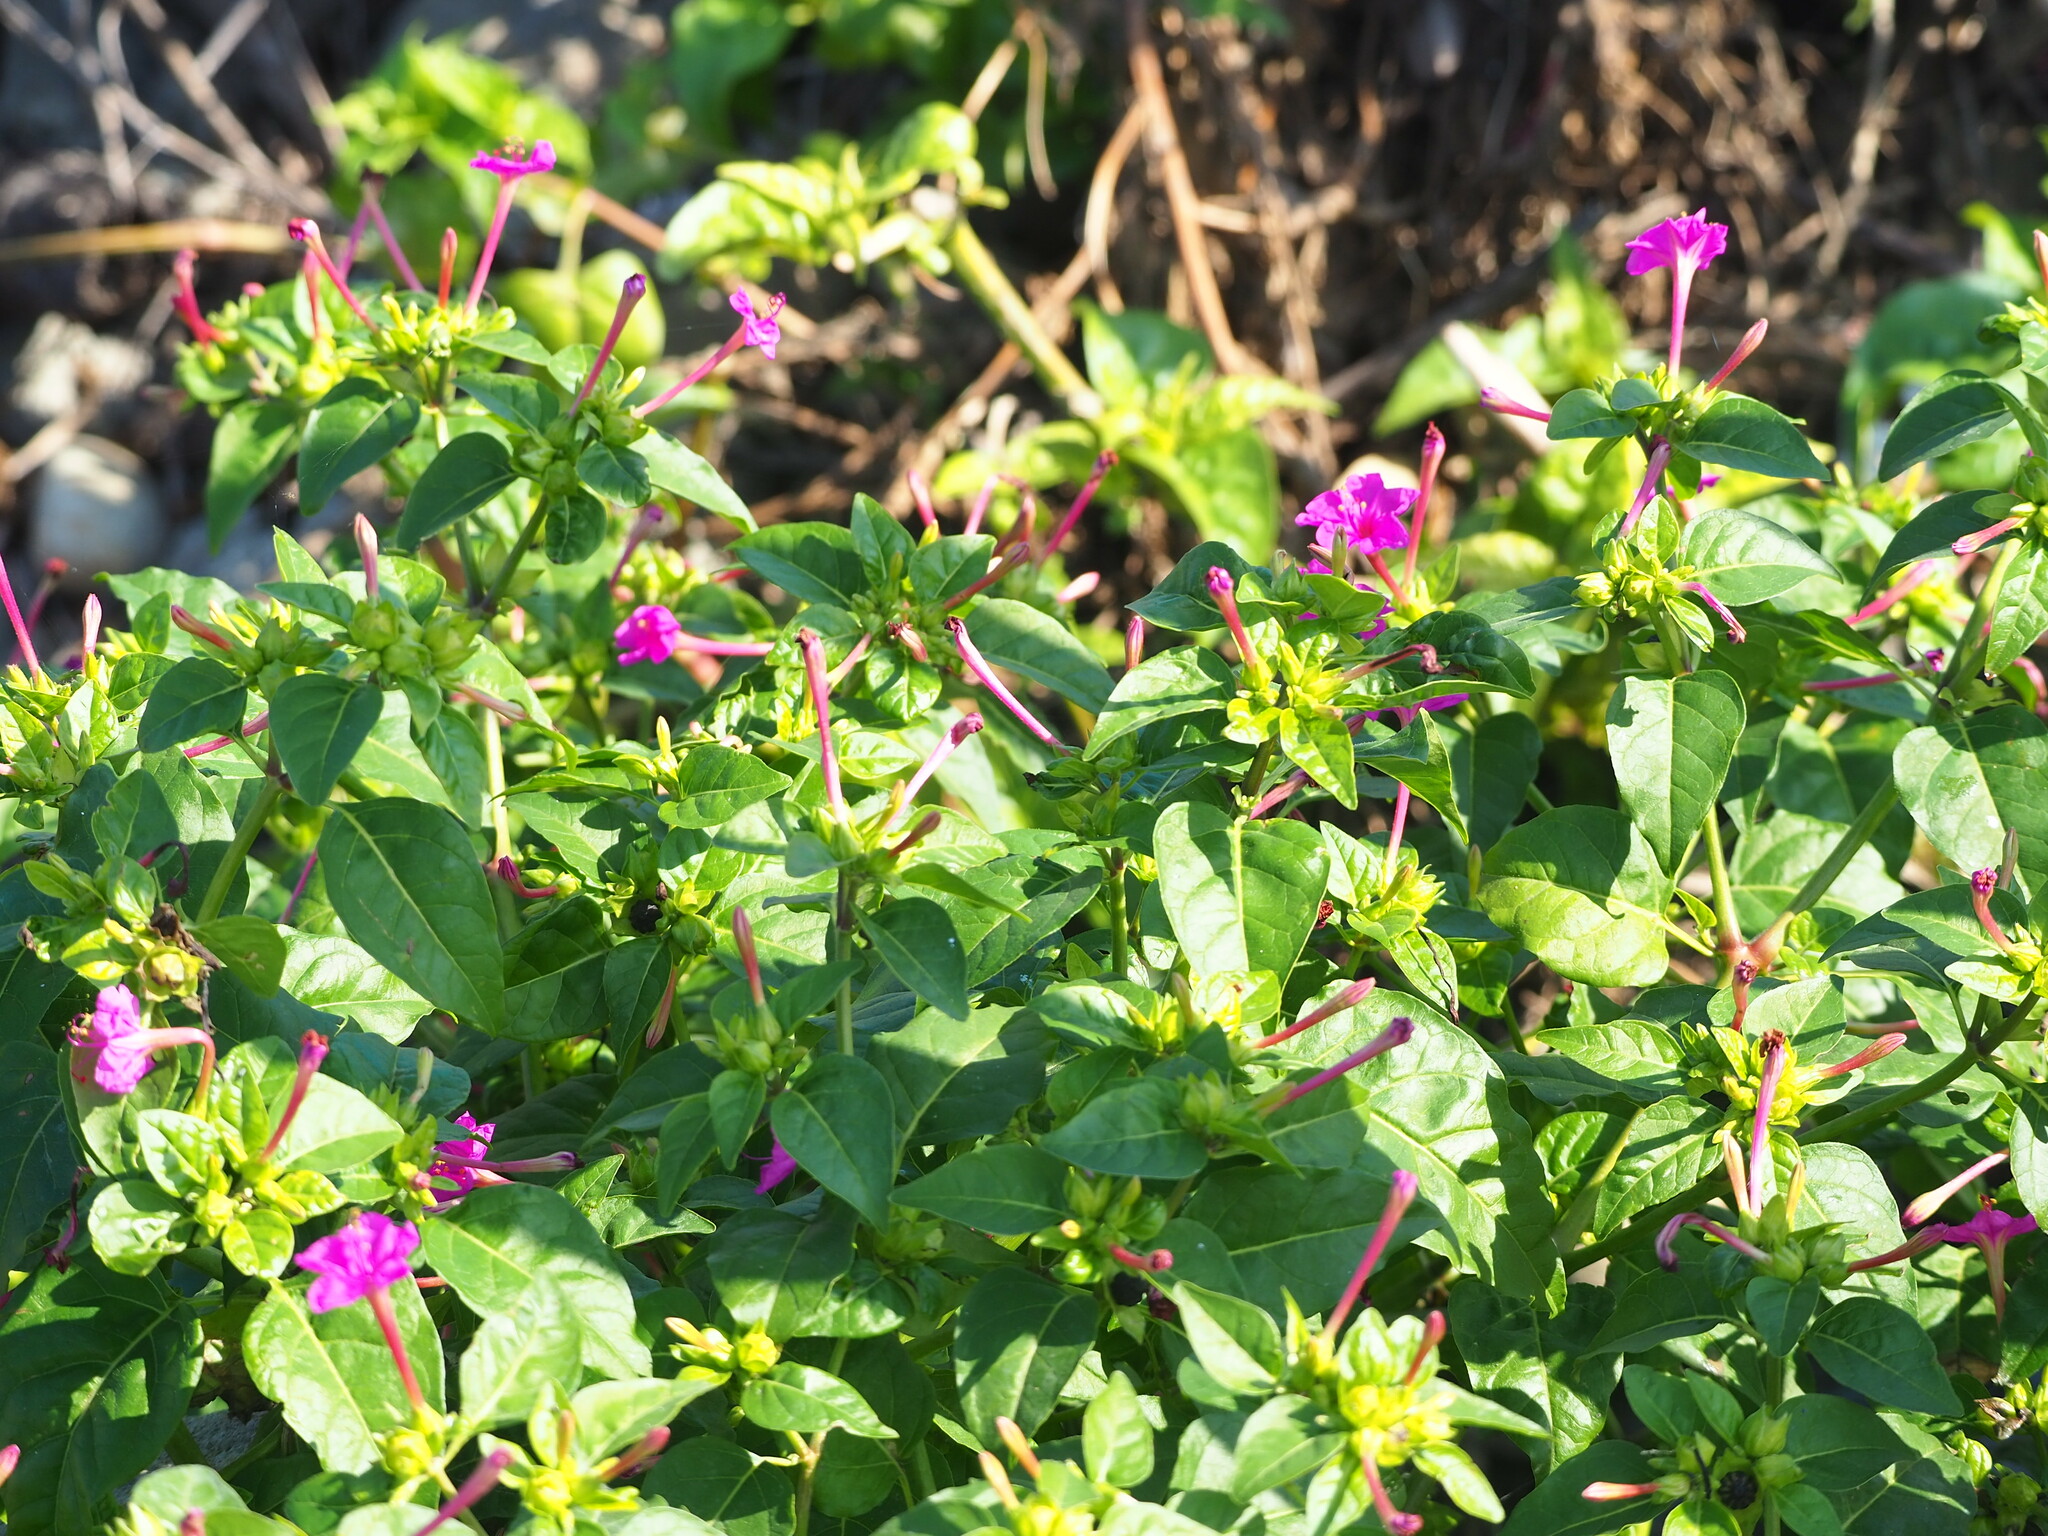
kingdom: Plantae
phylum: Tracheophyta
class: Magnoliopsida
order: Caryophyllales
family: Nyctaginaceae
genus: Mirabilis
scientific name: Mirabilis jalapa
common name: Marvel-of-peru
